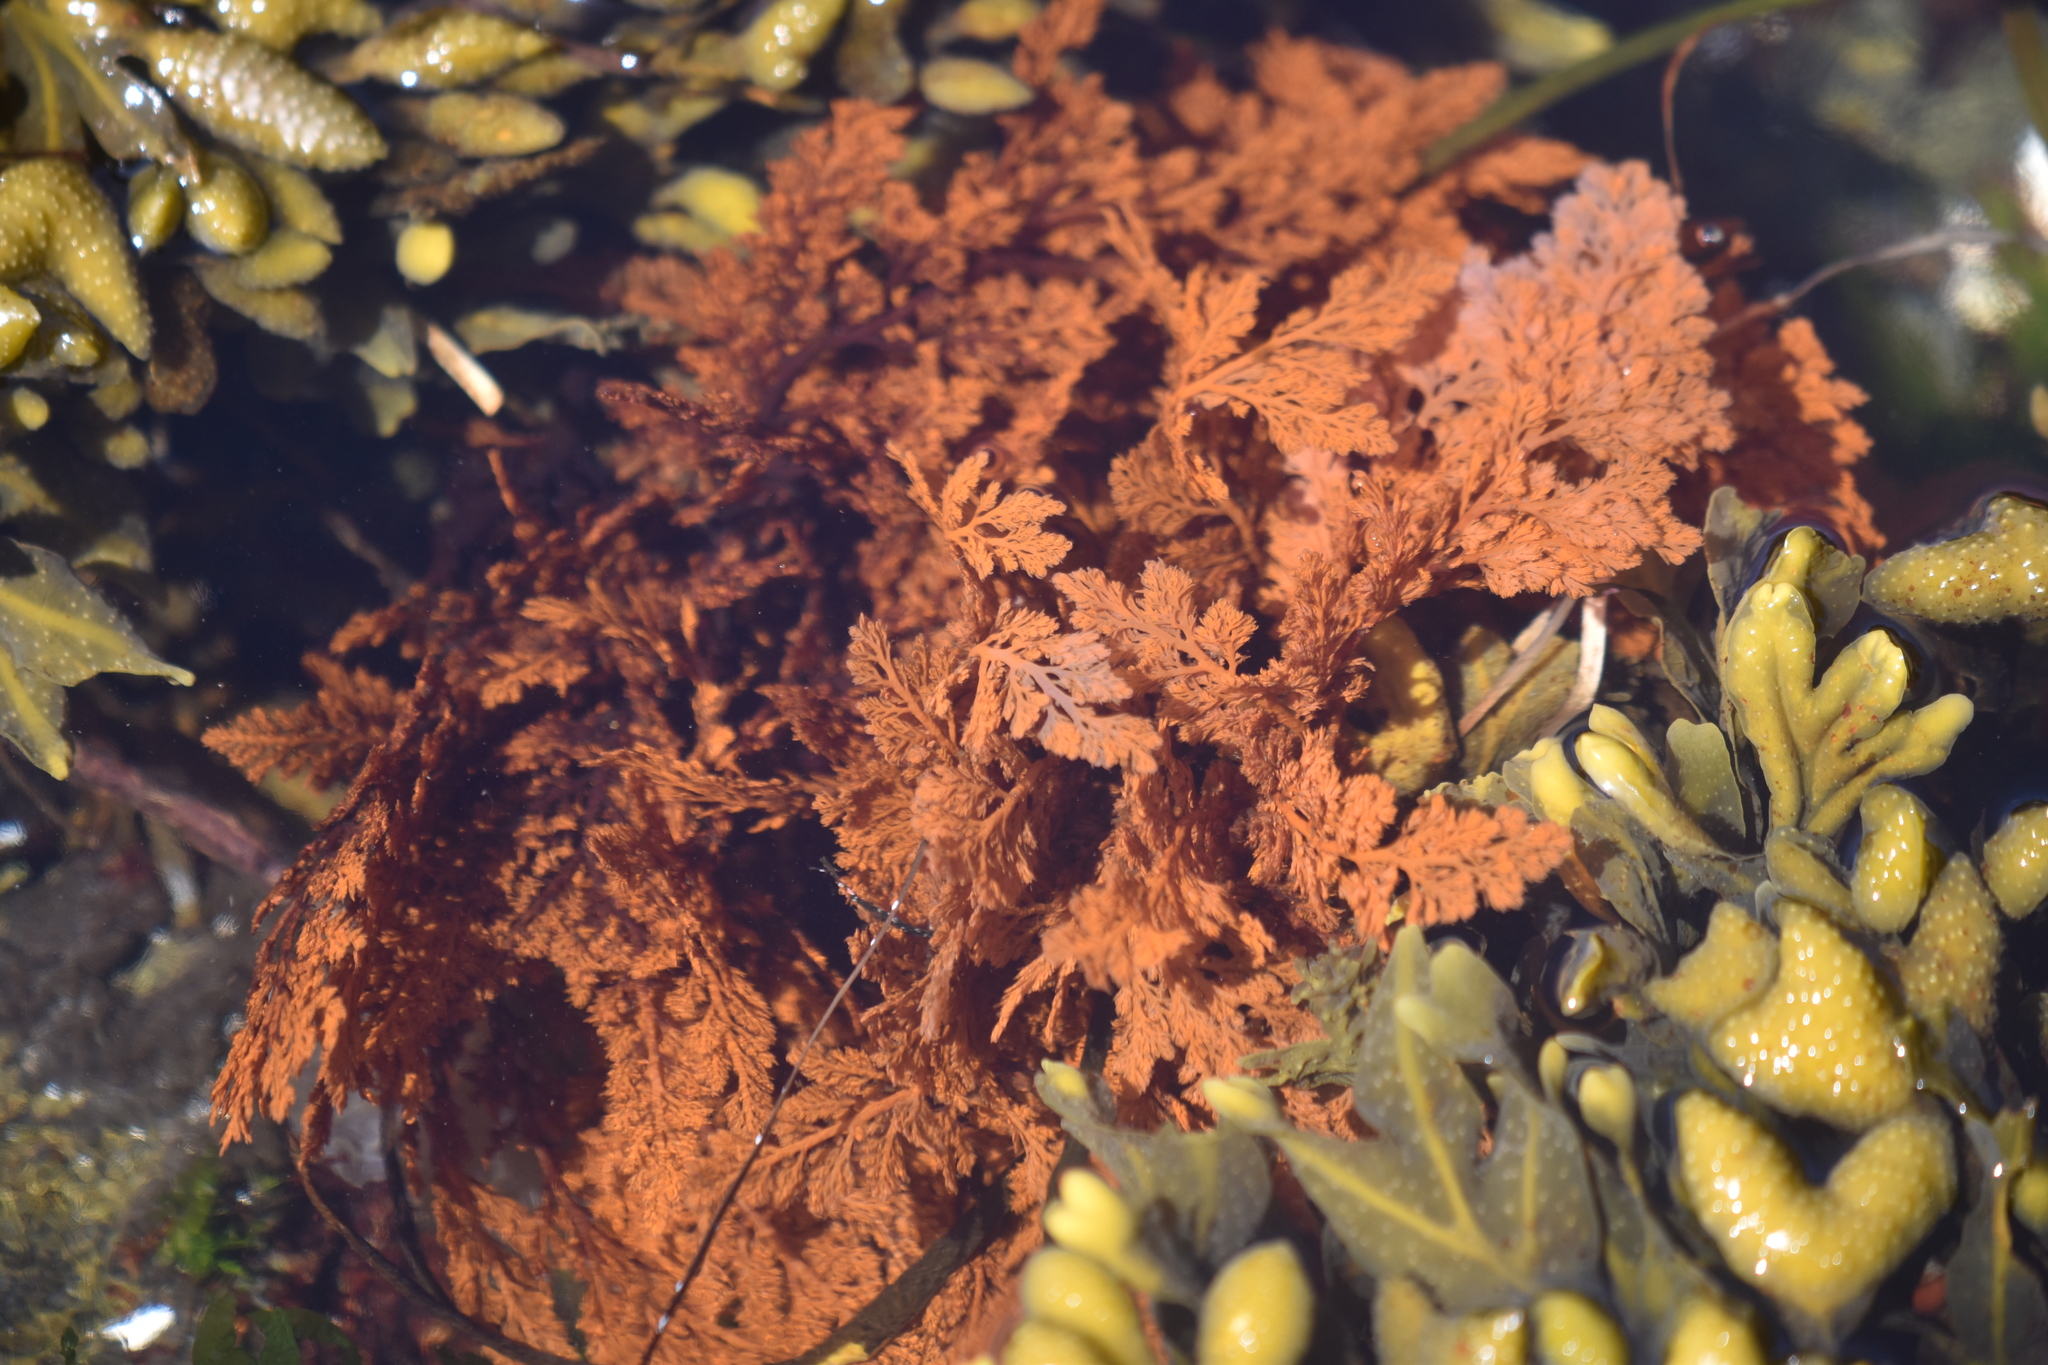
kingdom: Plantae
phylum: Rhodophyta
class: Florideophyceae
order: Ceramiales
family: Ceramiaceae
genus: Microcladia
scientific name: Microcladia coulteri
